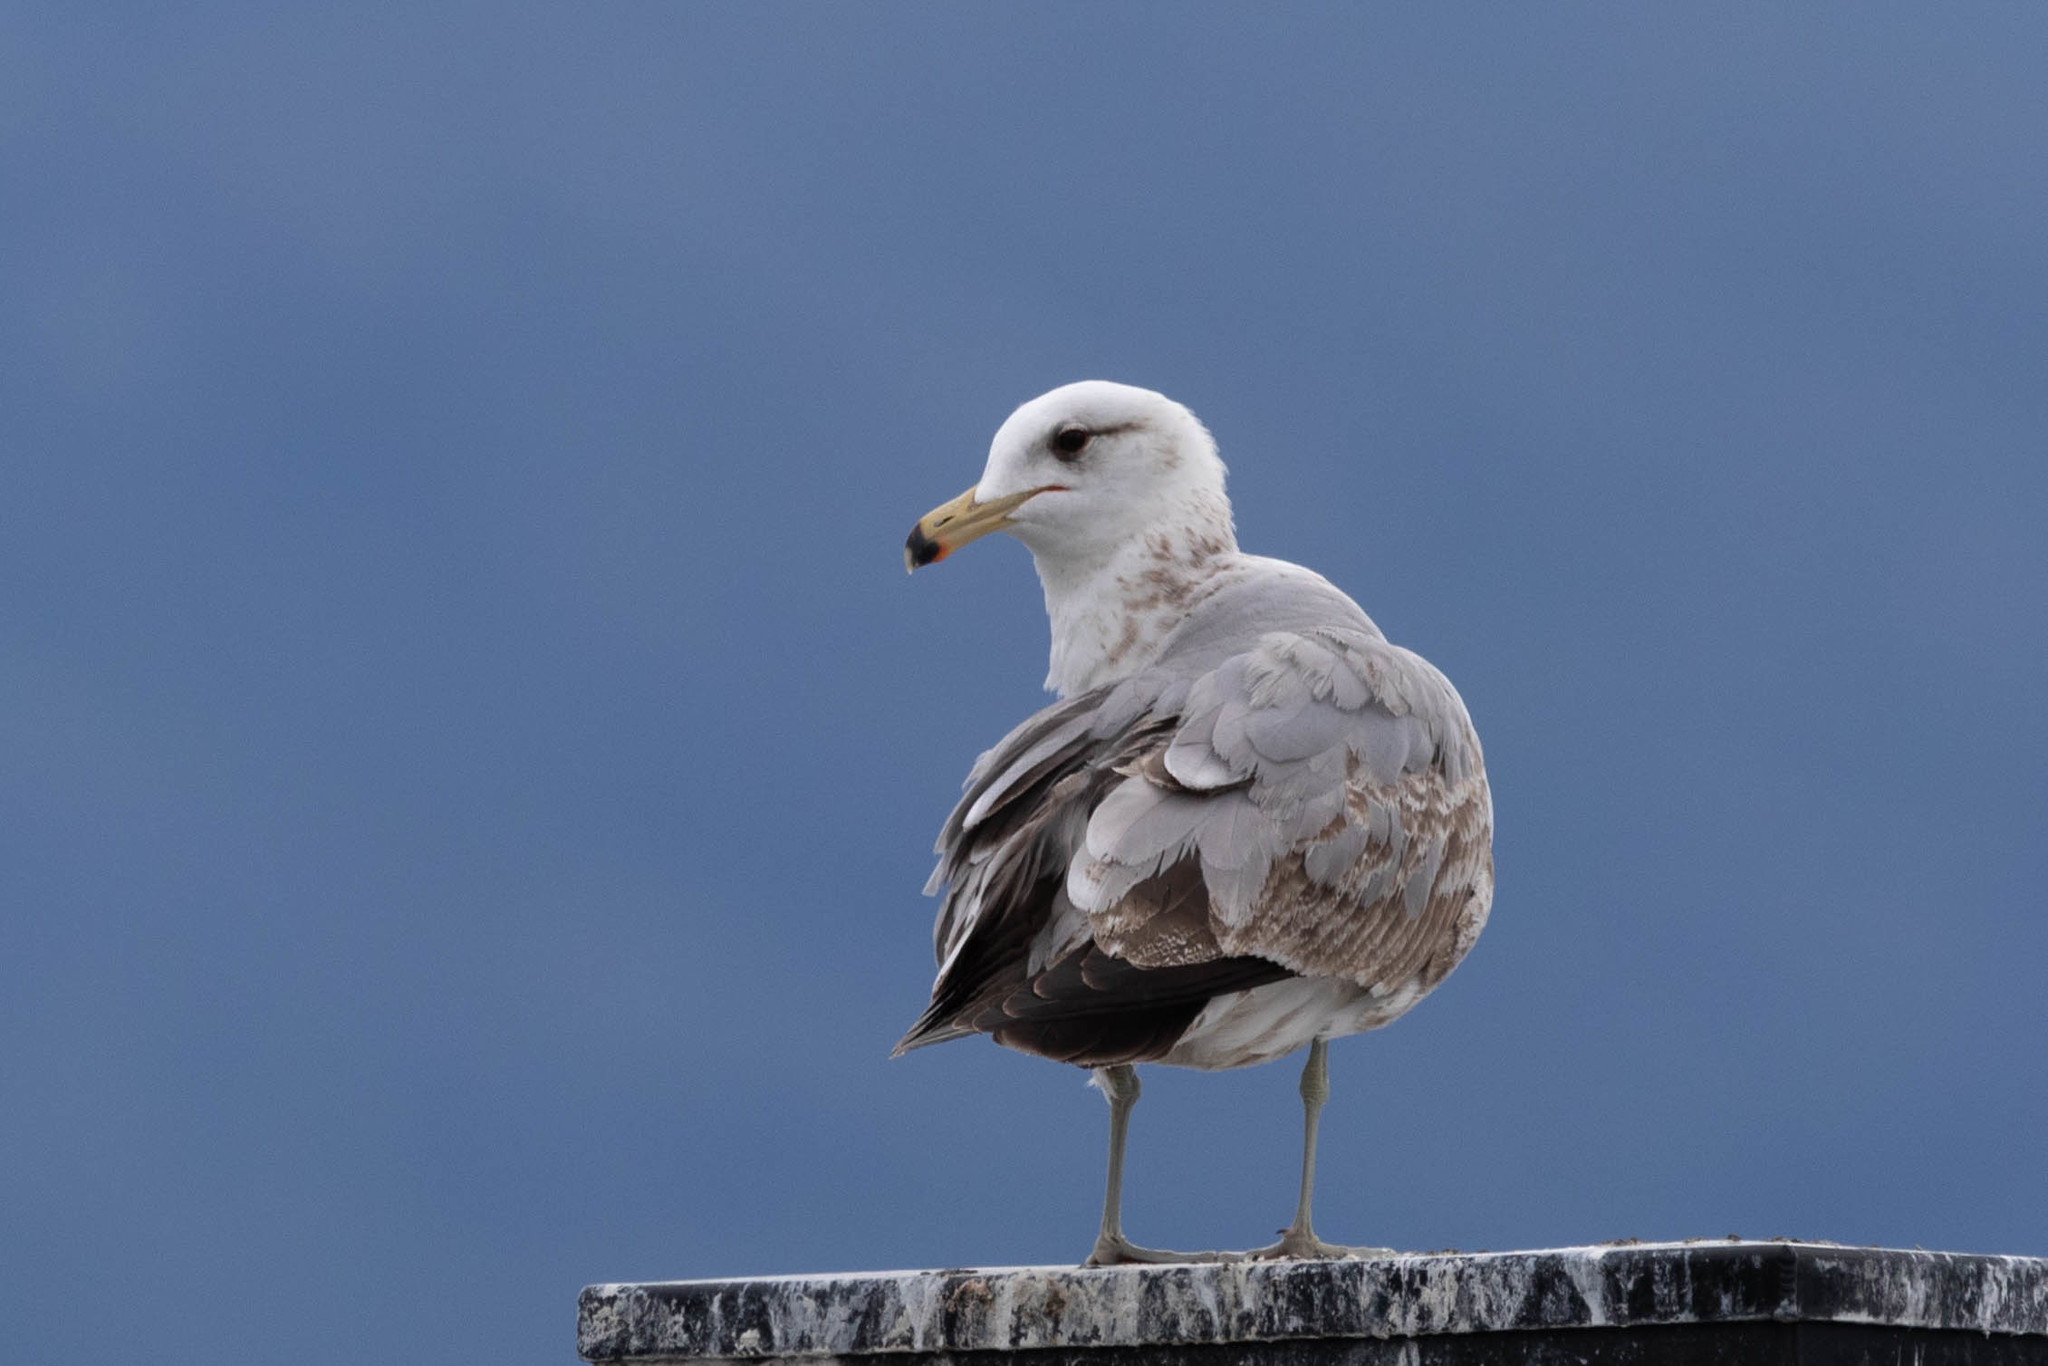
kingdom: Animalia
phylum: Chordata
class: Aves
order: Charadriiformes
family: Laridae
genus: Larus
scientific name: Larus californicus
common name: California gull
